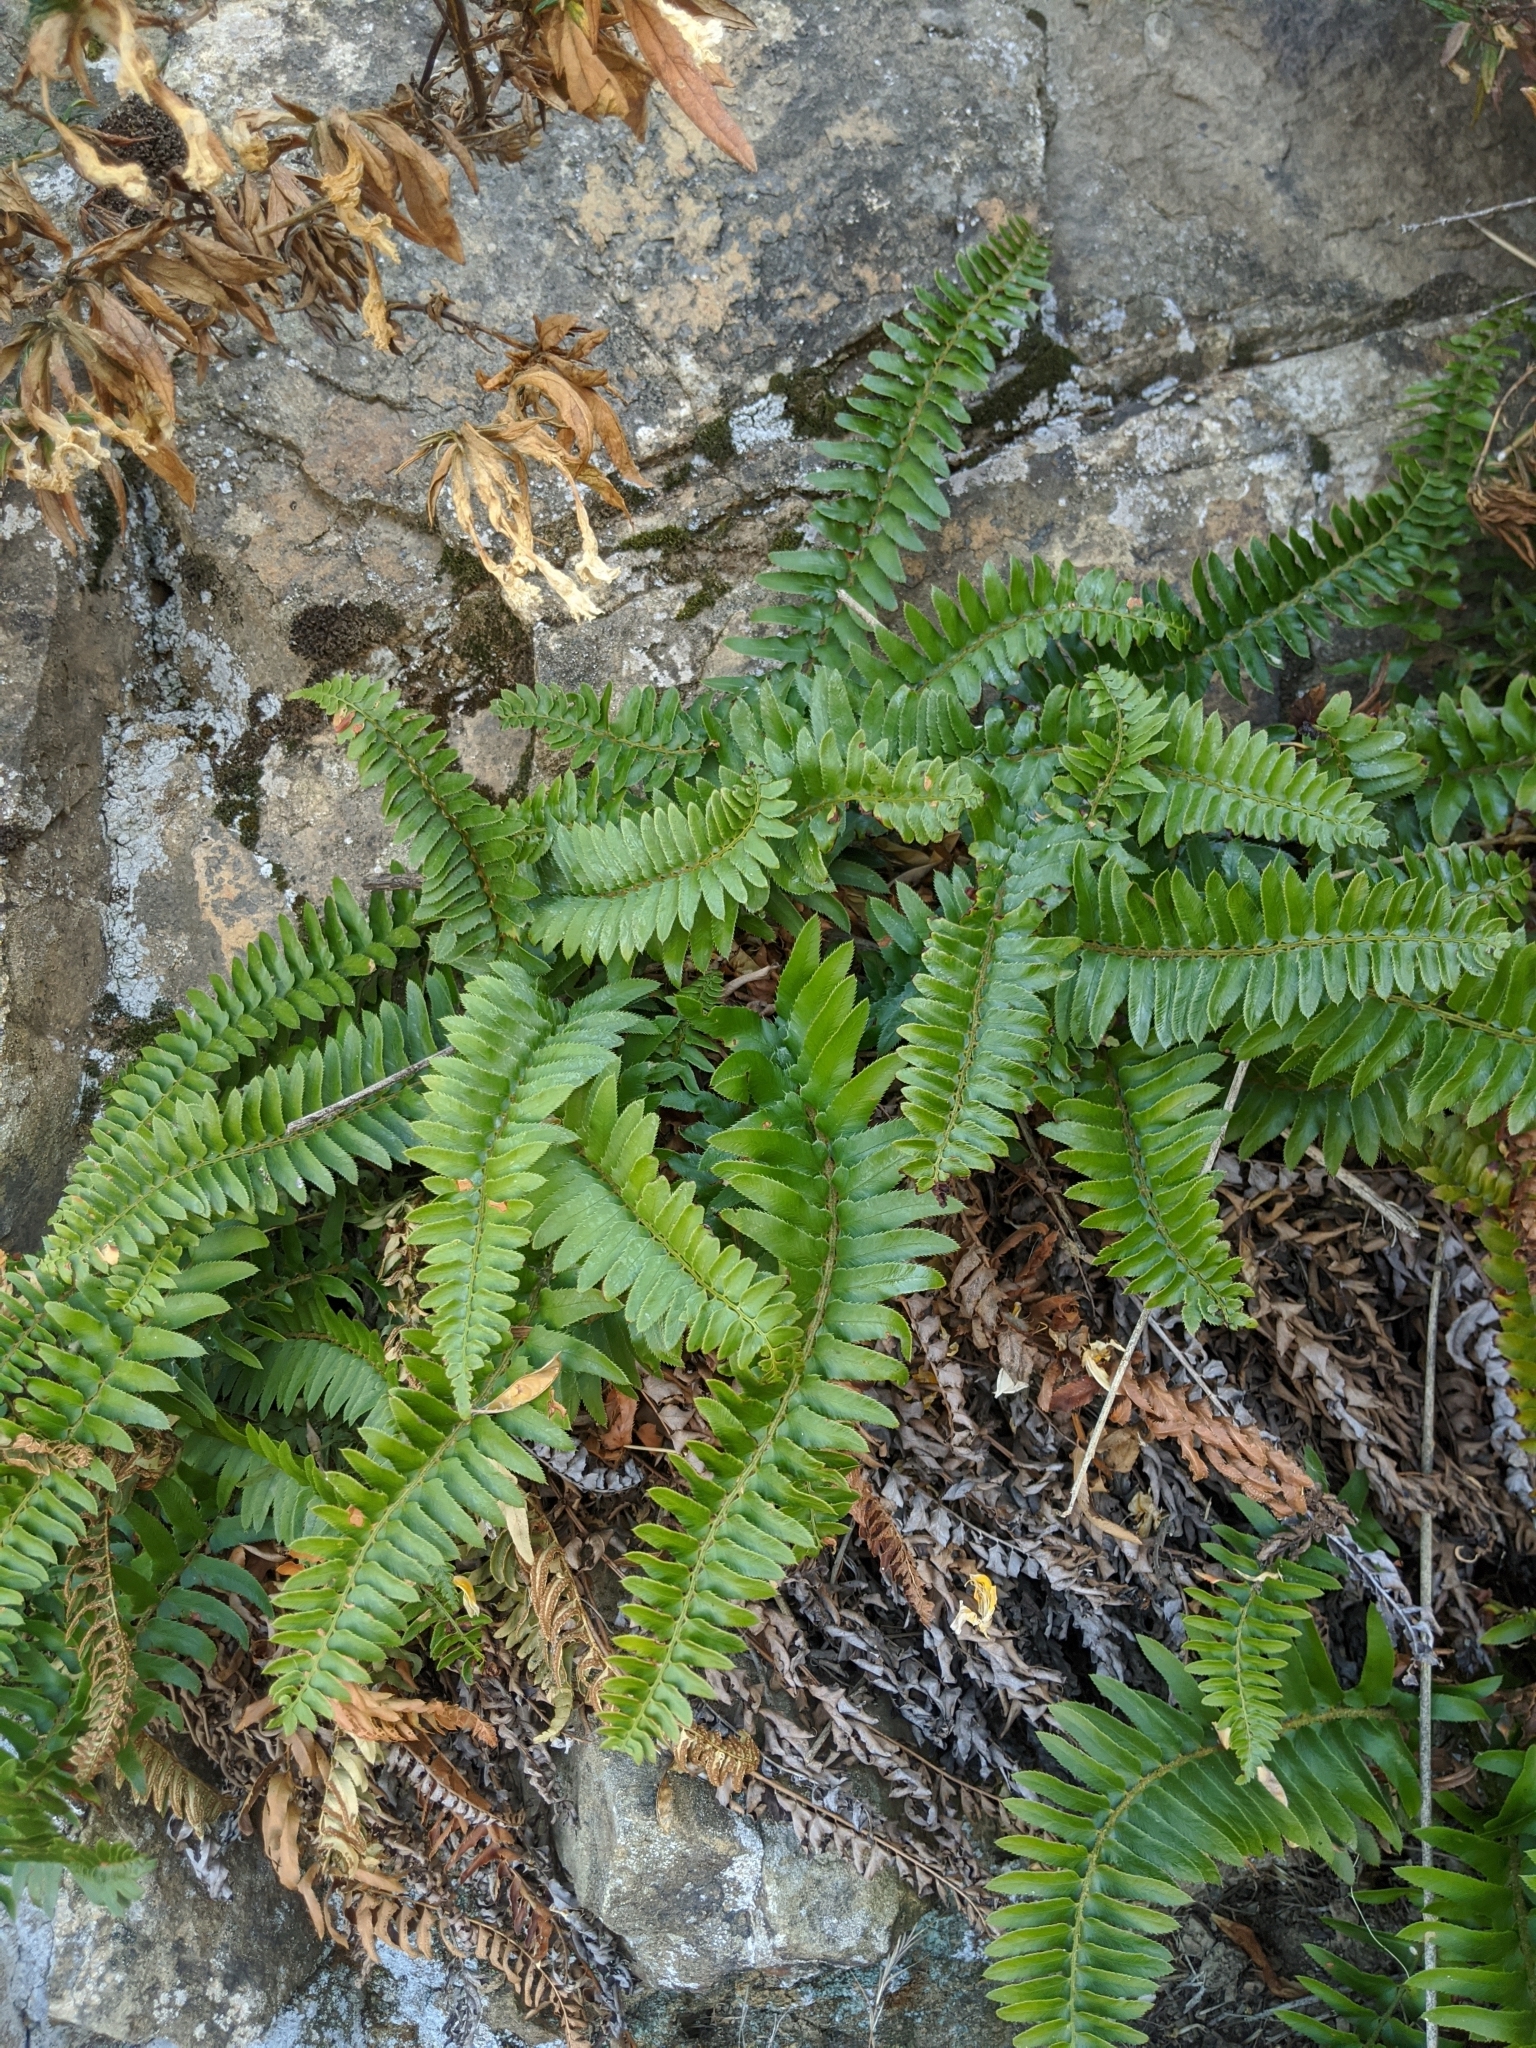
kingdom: Plantae
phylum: Tracheophyta
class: Polypodiopsida
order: Polypodiales
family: Dryopteridaceae
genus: Polystichum
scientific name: Polystichum imbricans
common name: Dwarf western sword fern
